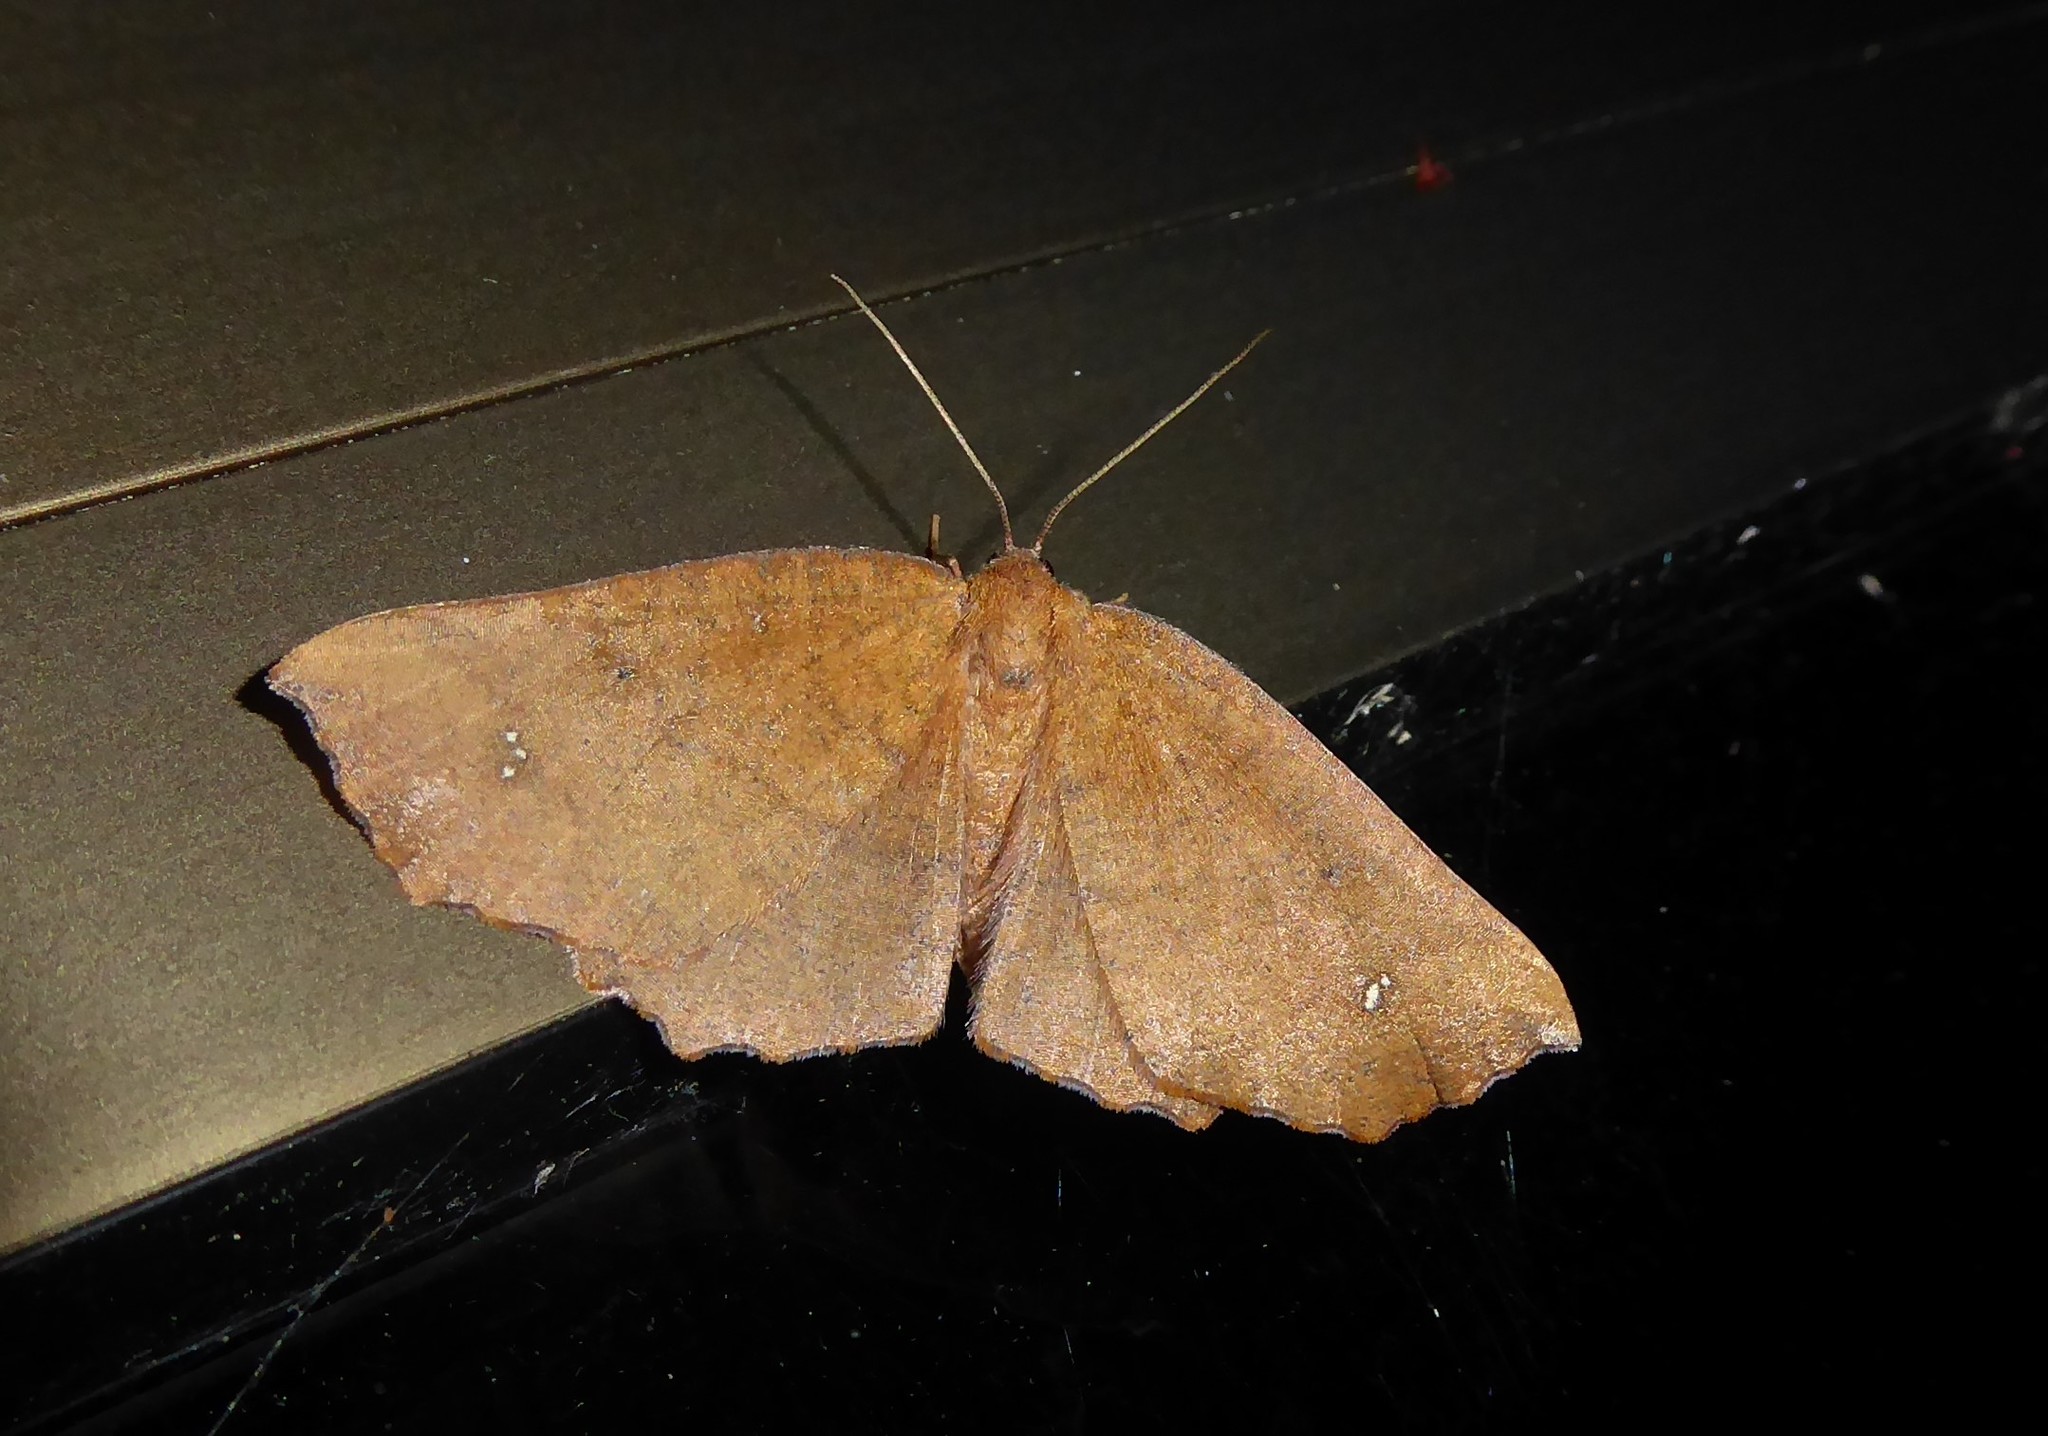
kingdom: Animalia
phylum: Arthropoda
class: Insecta
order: Lepidoptera
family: Geometridae
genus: Xyridacma
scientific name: Xyridacma ustaria
